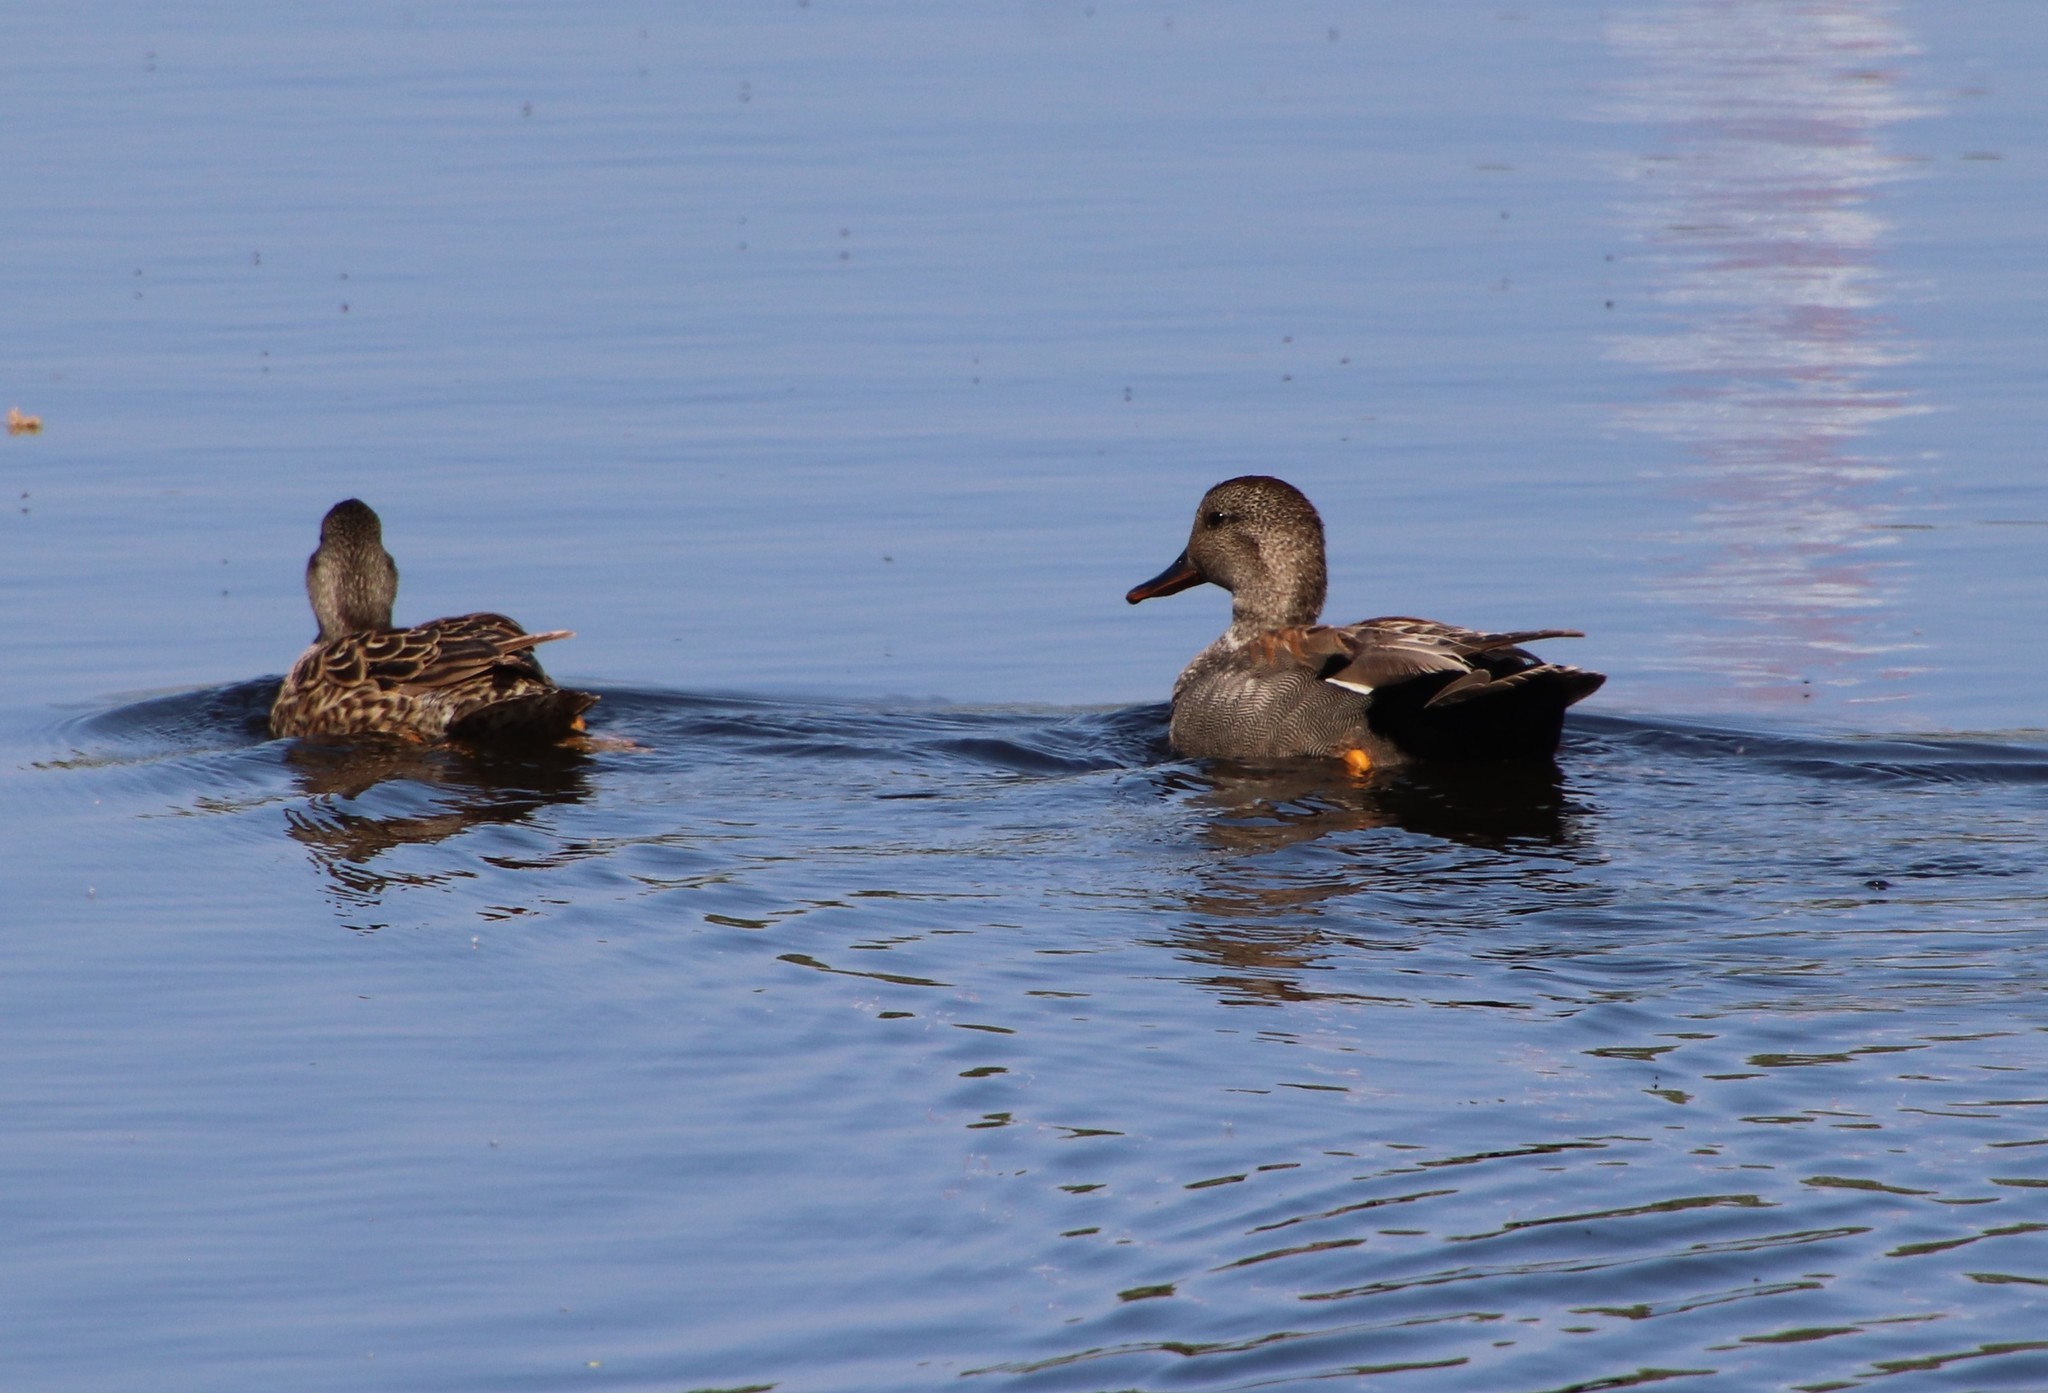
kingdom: Animalia
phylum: Chordata
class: Aves
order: Anseriformes
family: Anatidae
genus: Mareca
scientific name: Mareca strepera
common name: Gadwall
